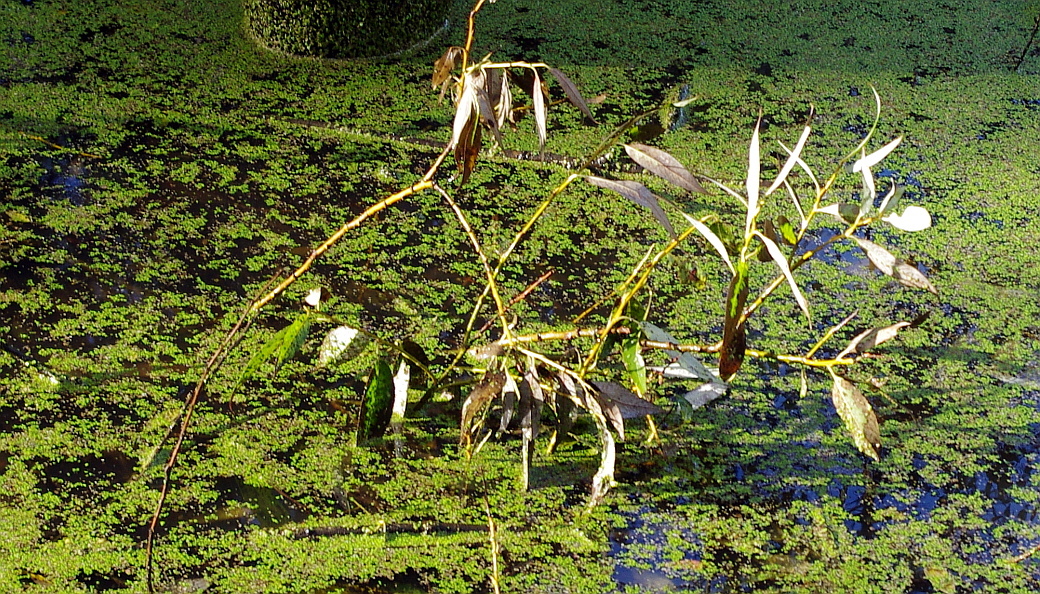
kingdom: Plantae
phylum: Tracheophyta
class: Magnoliopsida
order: Malpighiales
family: Salicaceae
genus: Salix
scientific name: Salix alba
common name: White willow
